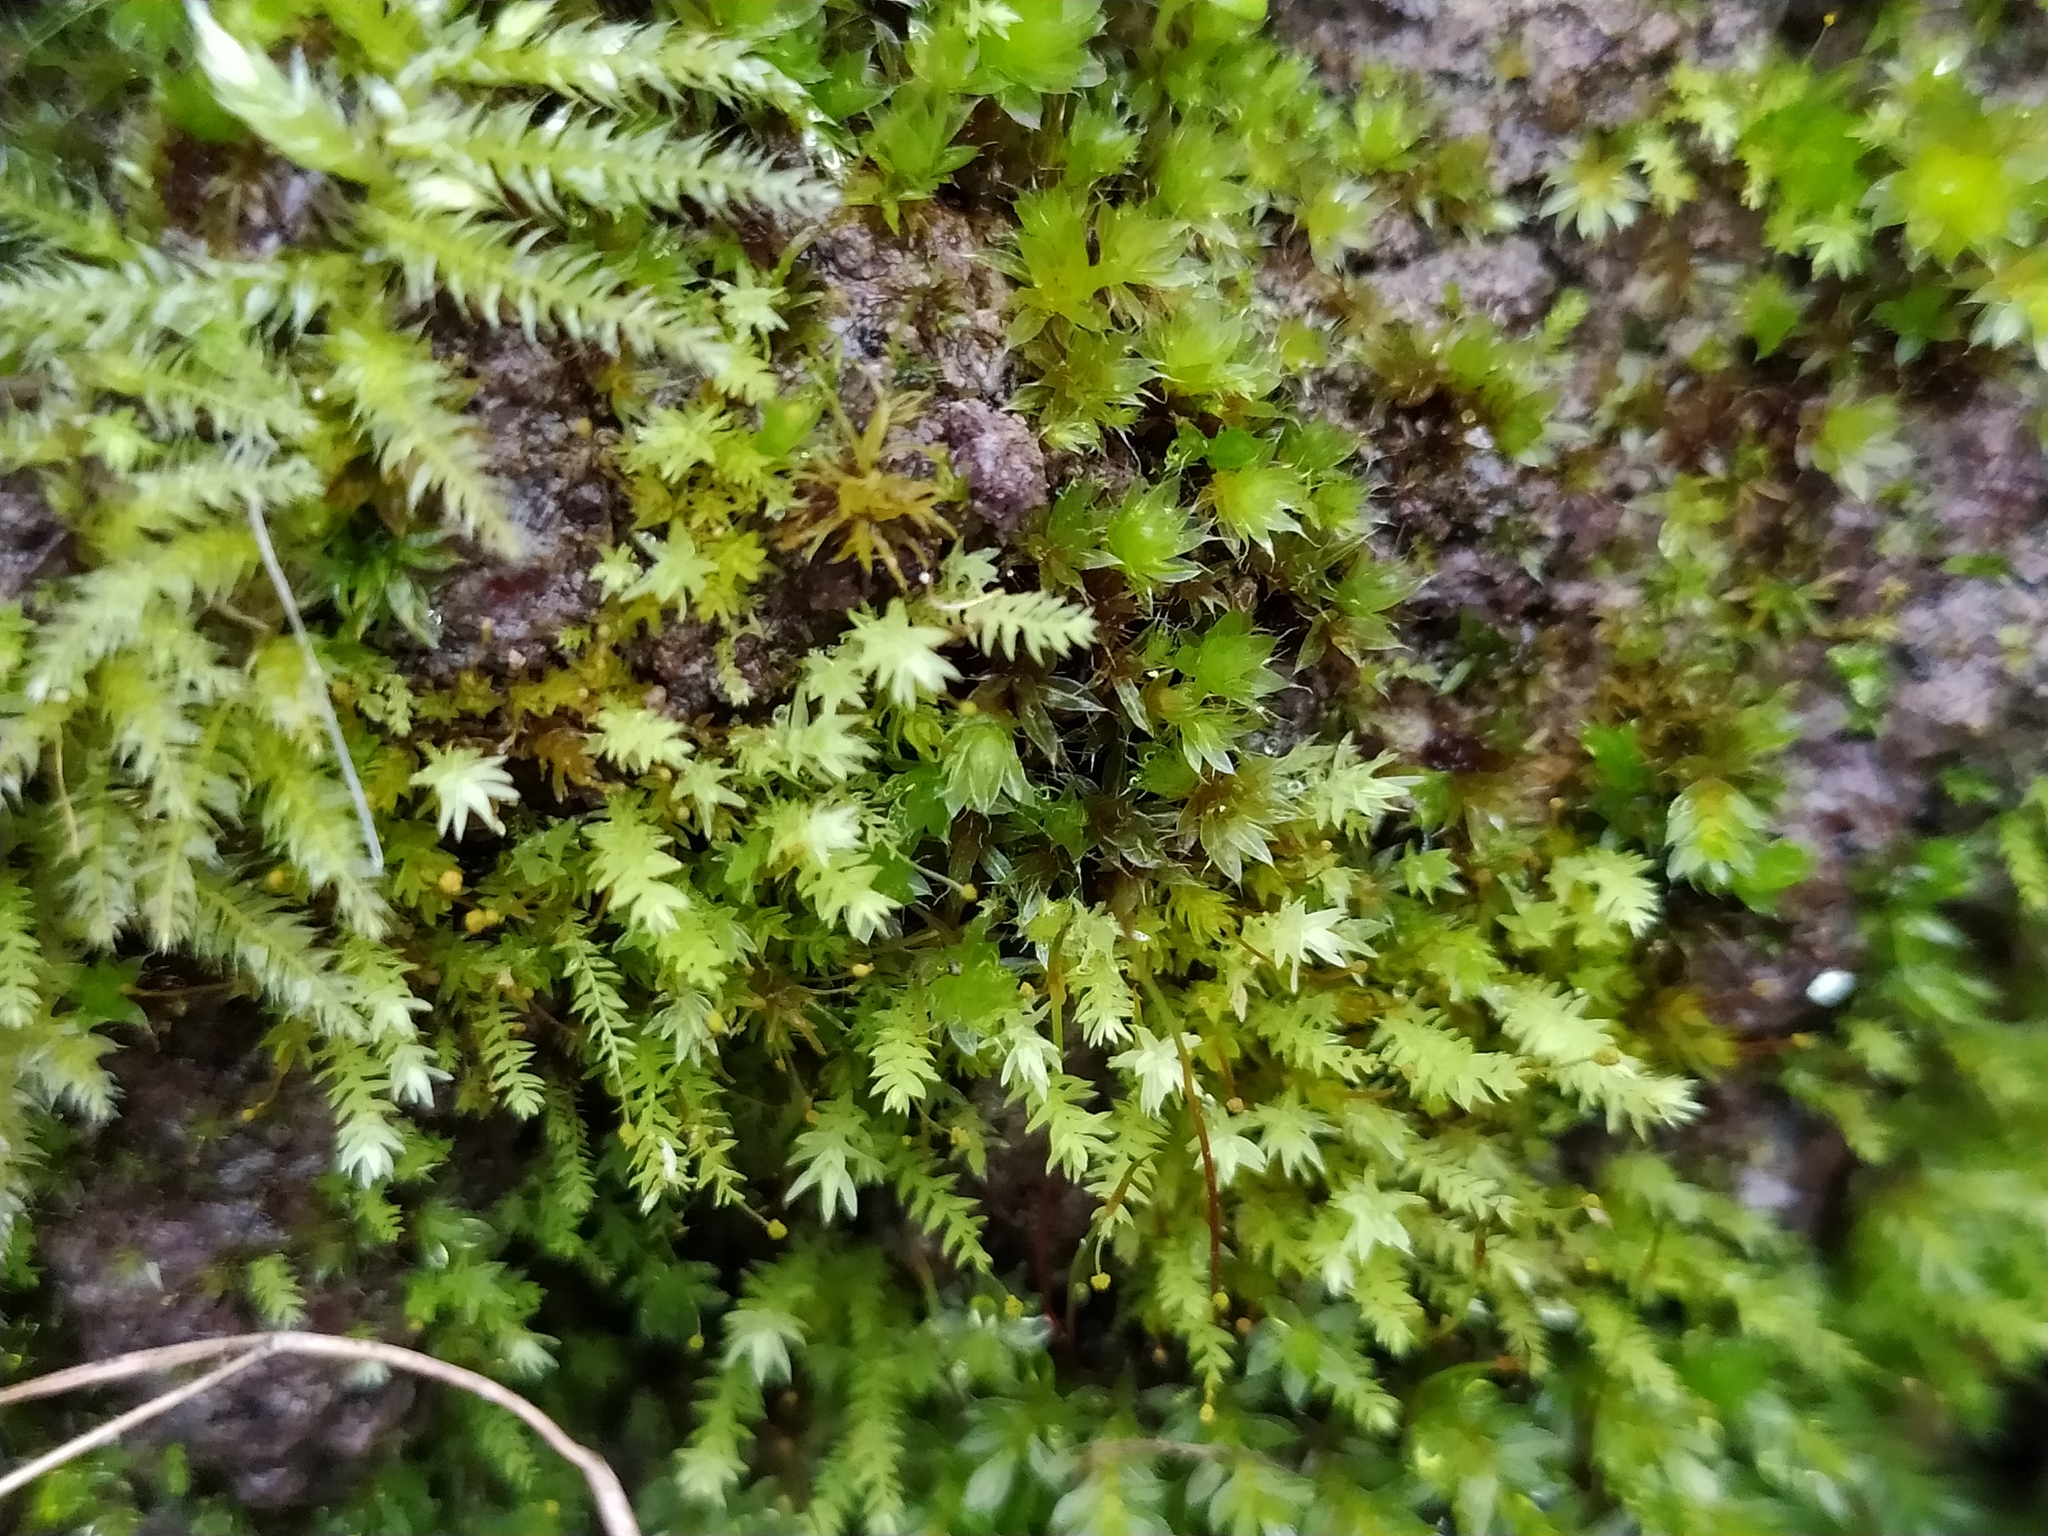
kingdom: Plantae
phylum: Bryophyta
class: Bryopsida
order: Aulacomniales
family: Aulacomniaceae
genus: Aulacomnium
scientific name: Aulacomnium androgynum
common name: Little groove moss
